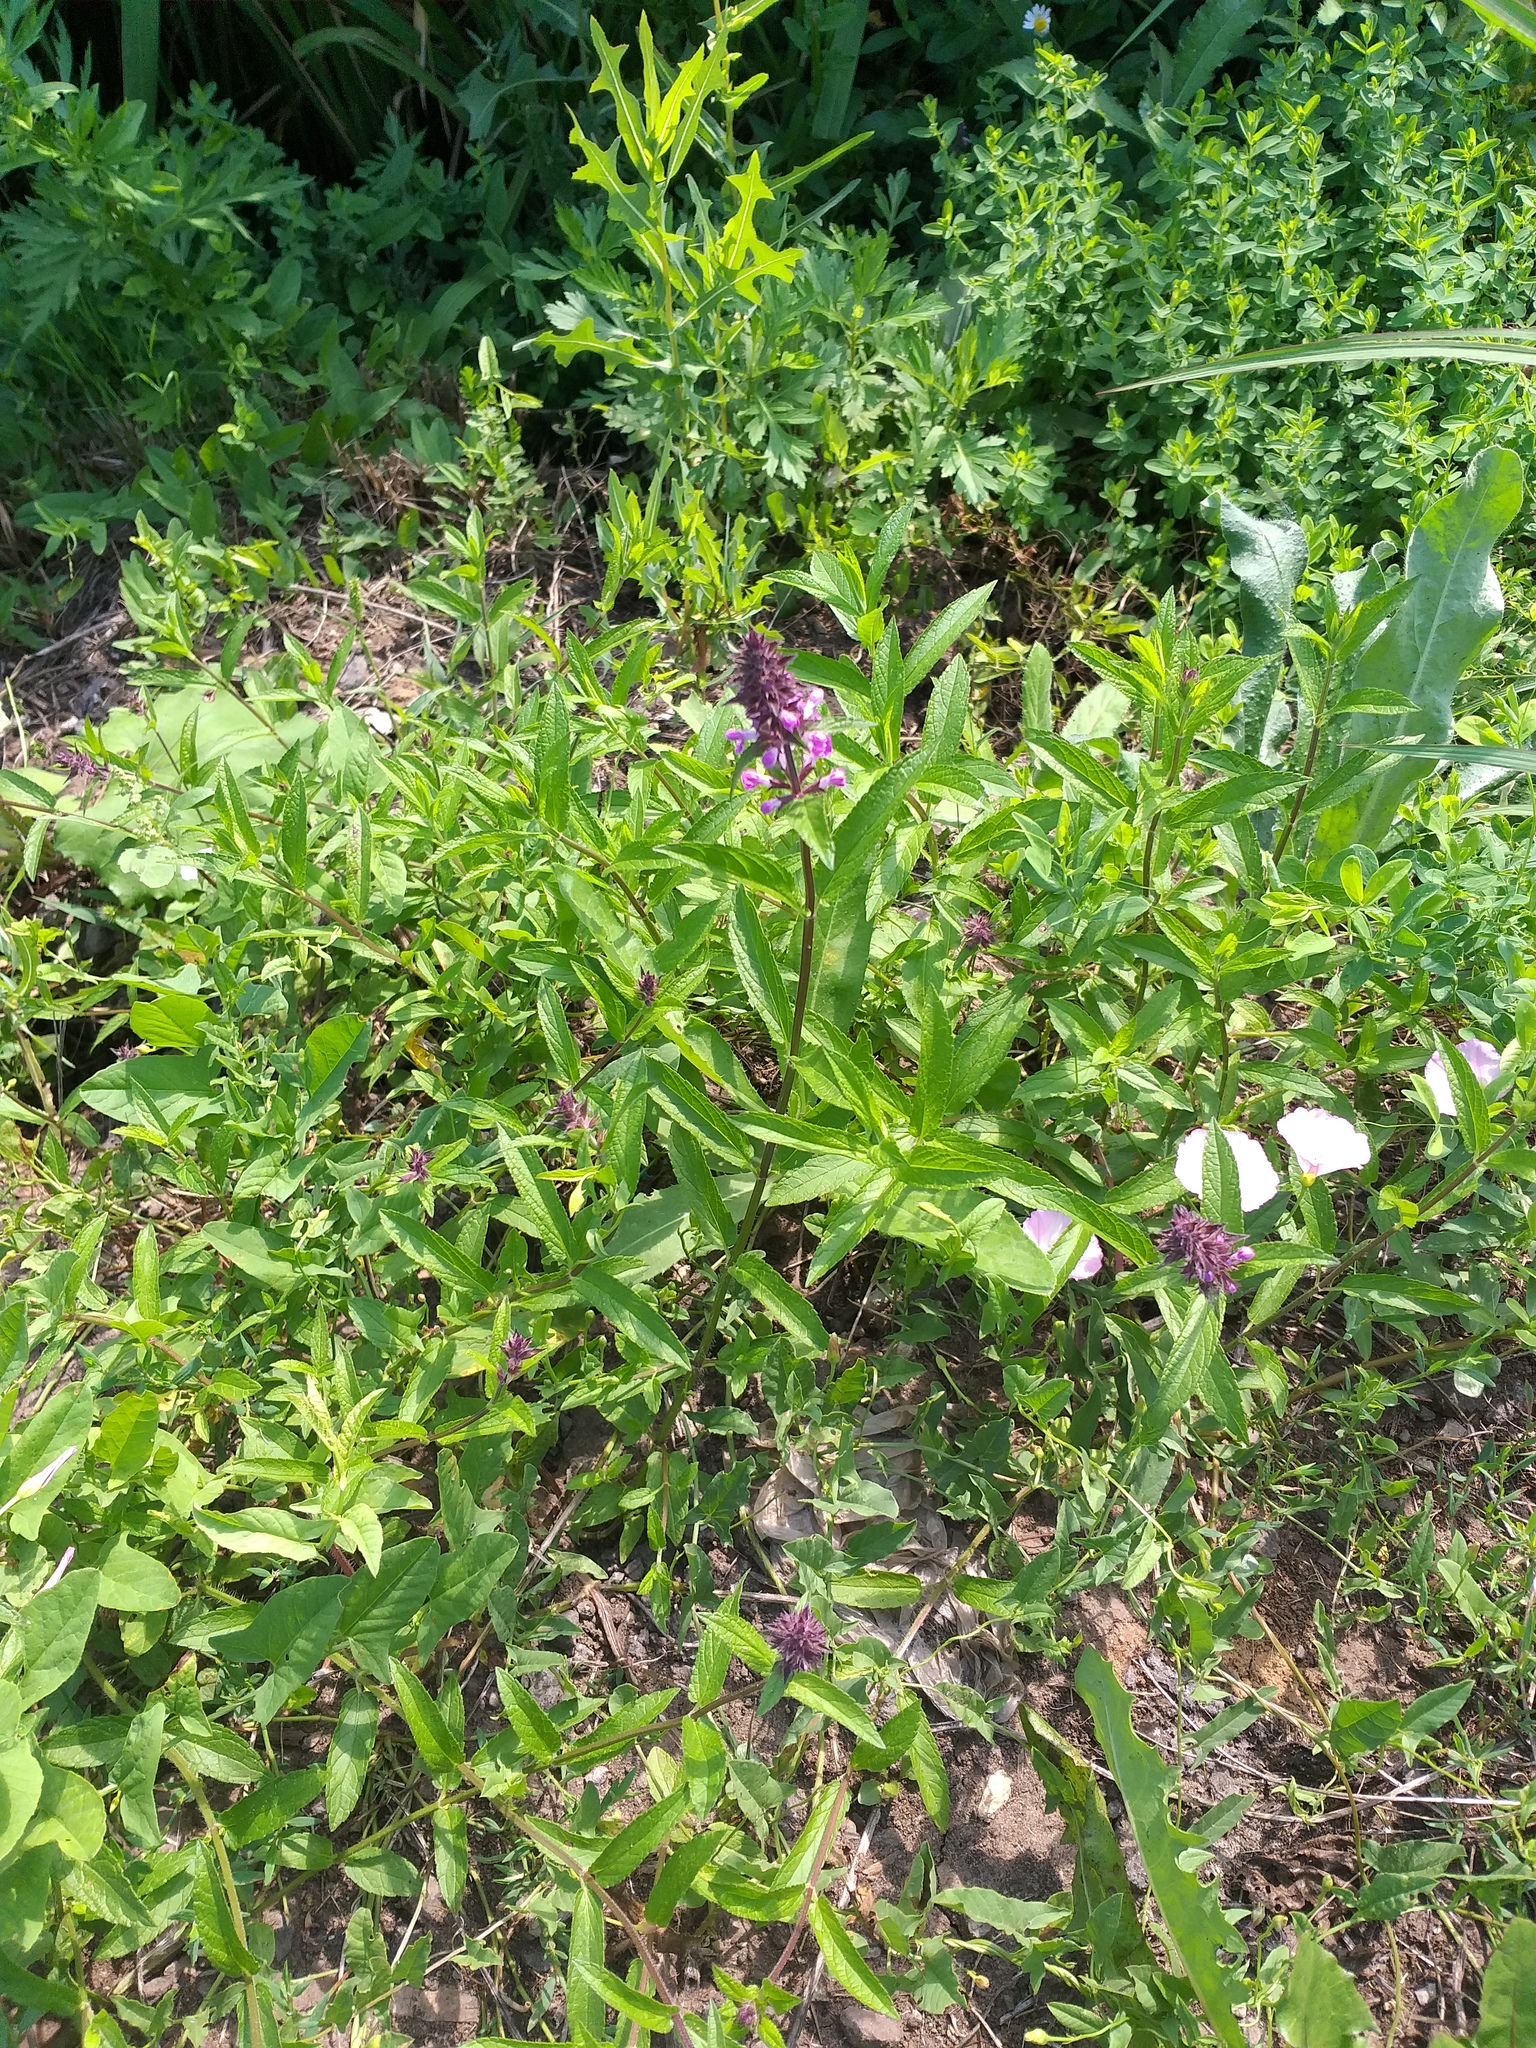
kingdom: Plantae
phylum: Tracheophyta
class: Magnoliopsida
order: Lamiales
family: Lamiaceae
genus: Stachys
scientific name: Stachys palustris
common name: Marsh woundwort
